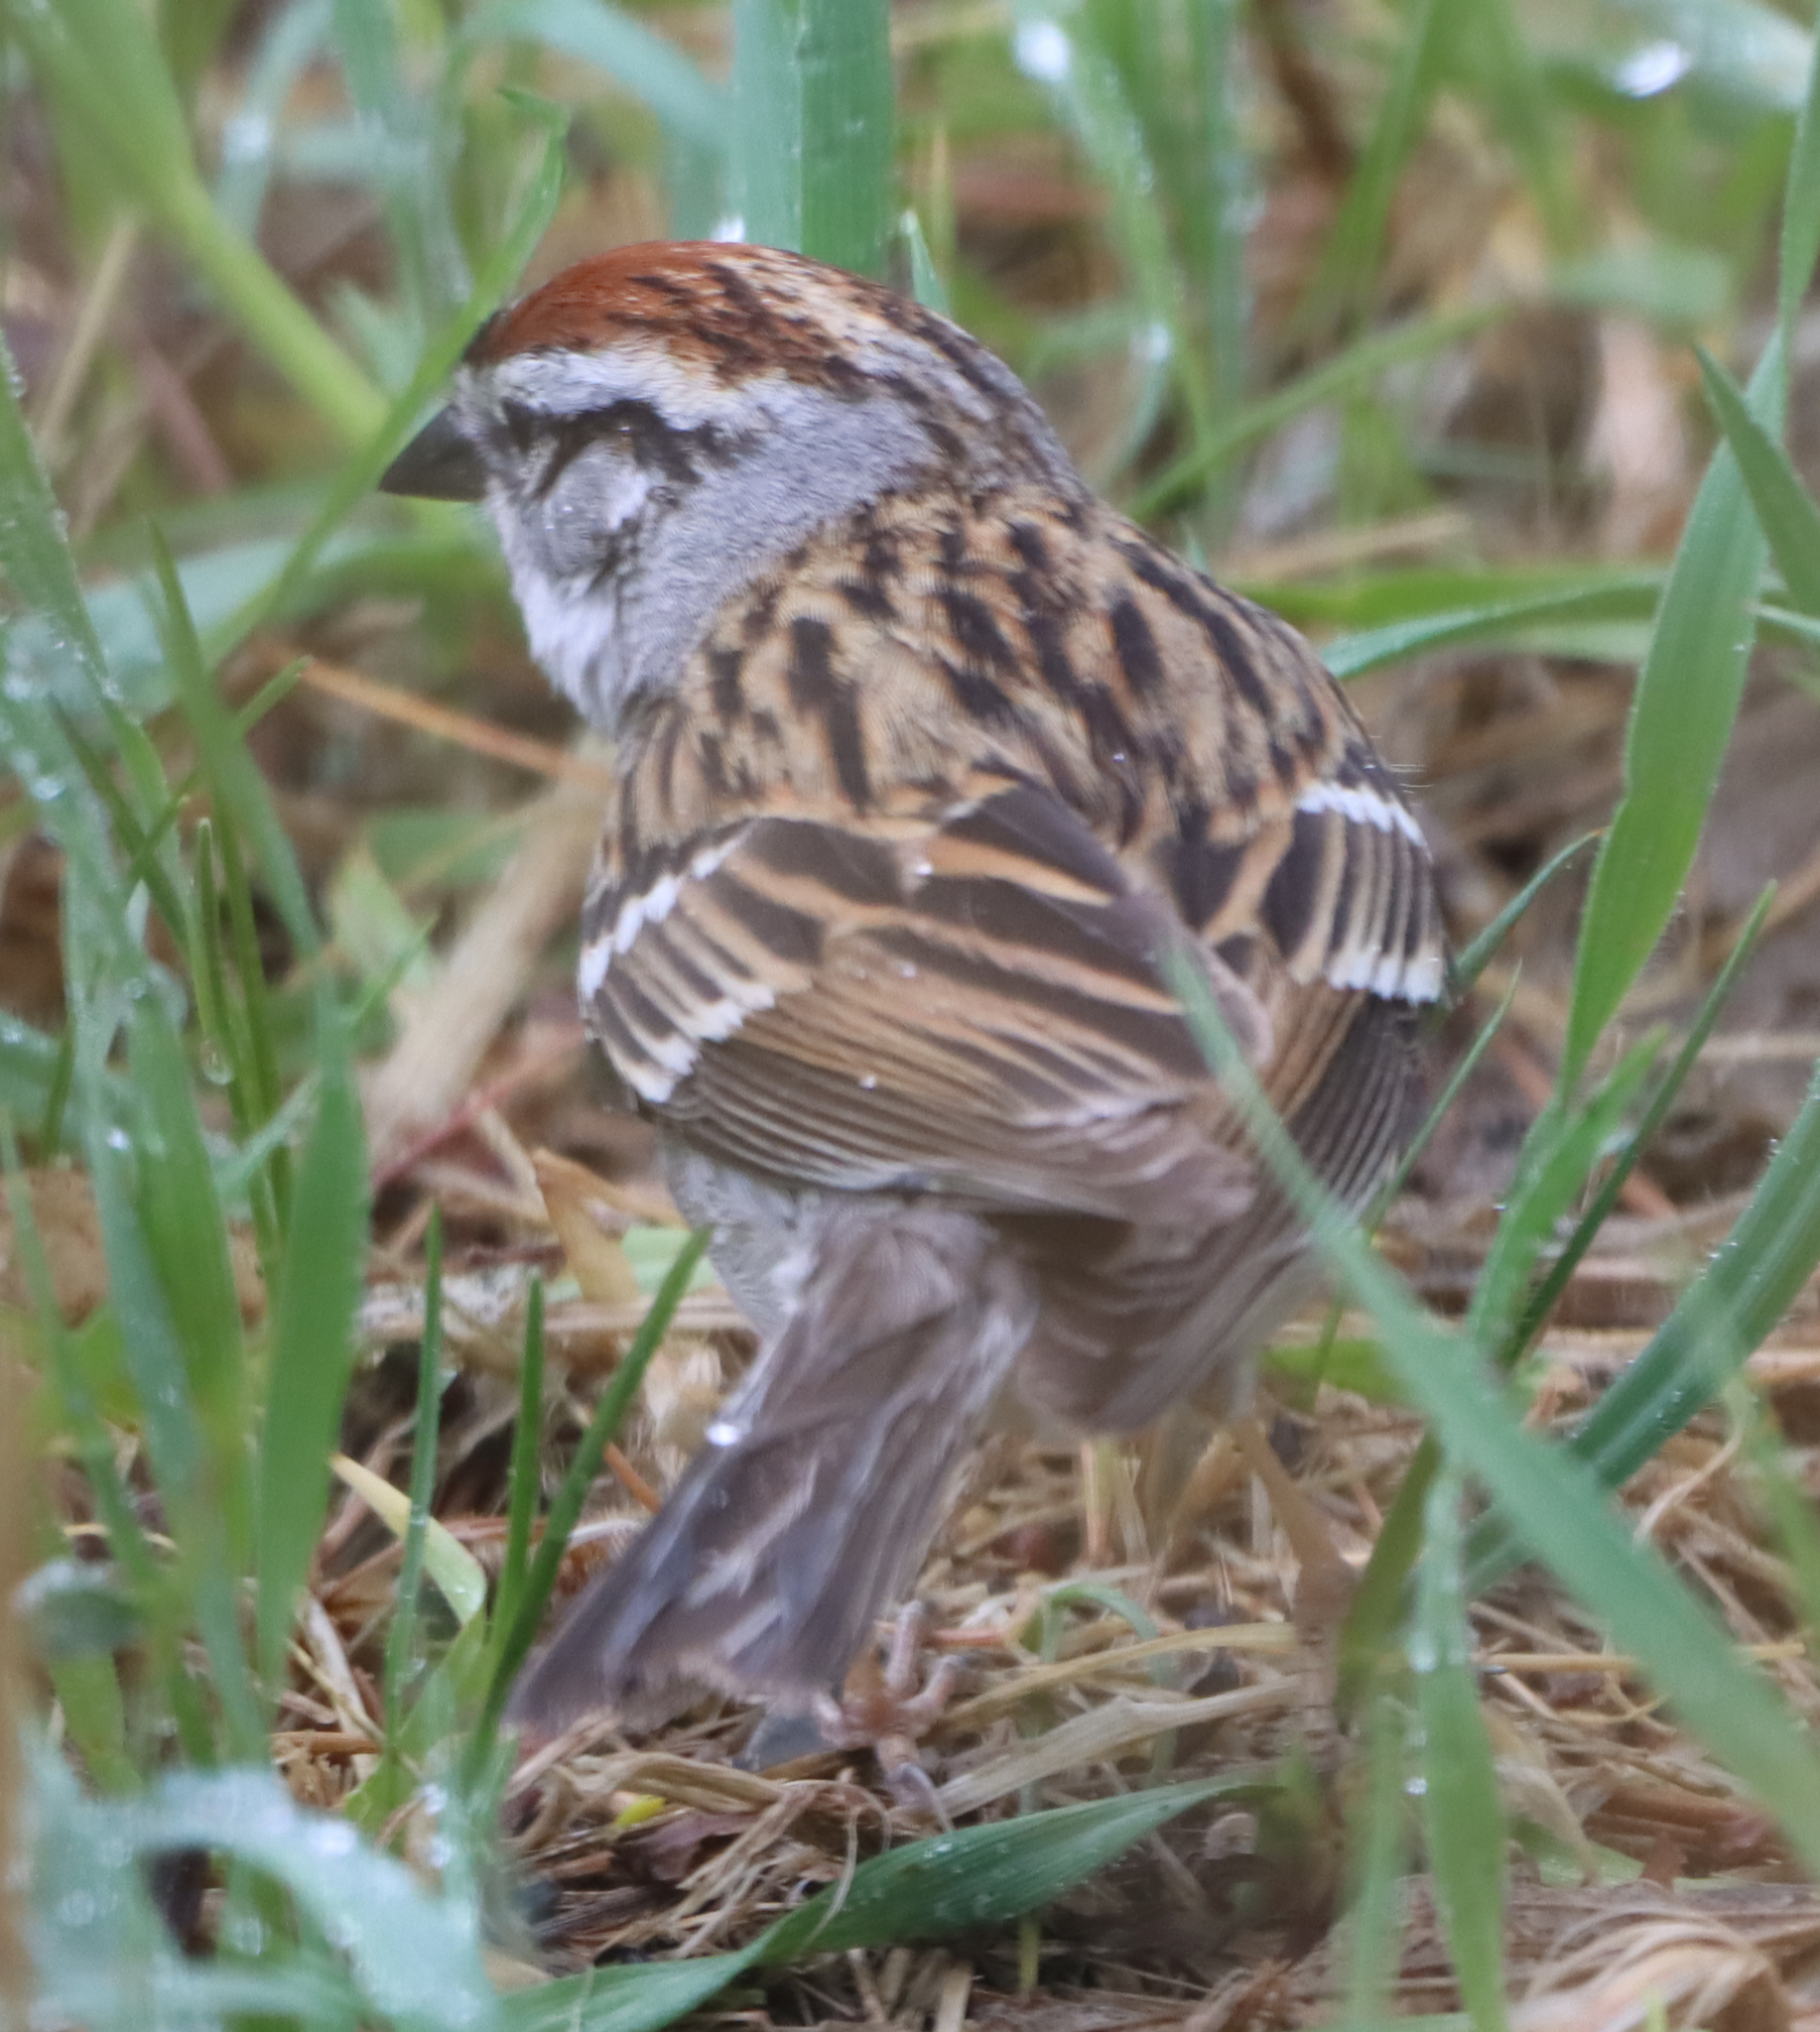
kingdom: Animalia
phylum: Chordata
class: Aves
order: Passeriformes
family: Passerellidae
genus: Spizelloides
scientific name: Spizelloides arborea
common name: American tree sparrow
